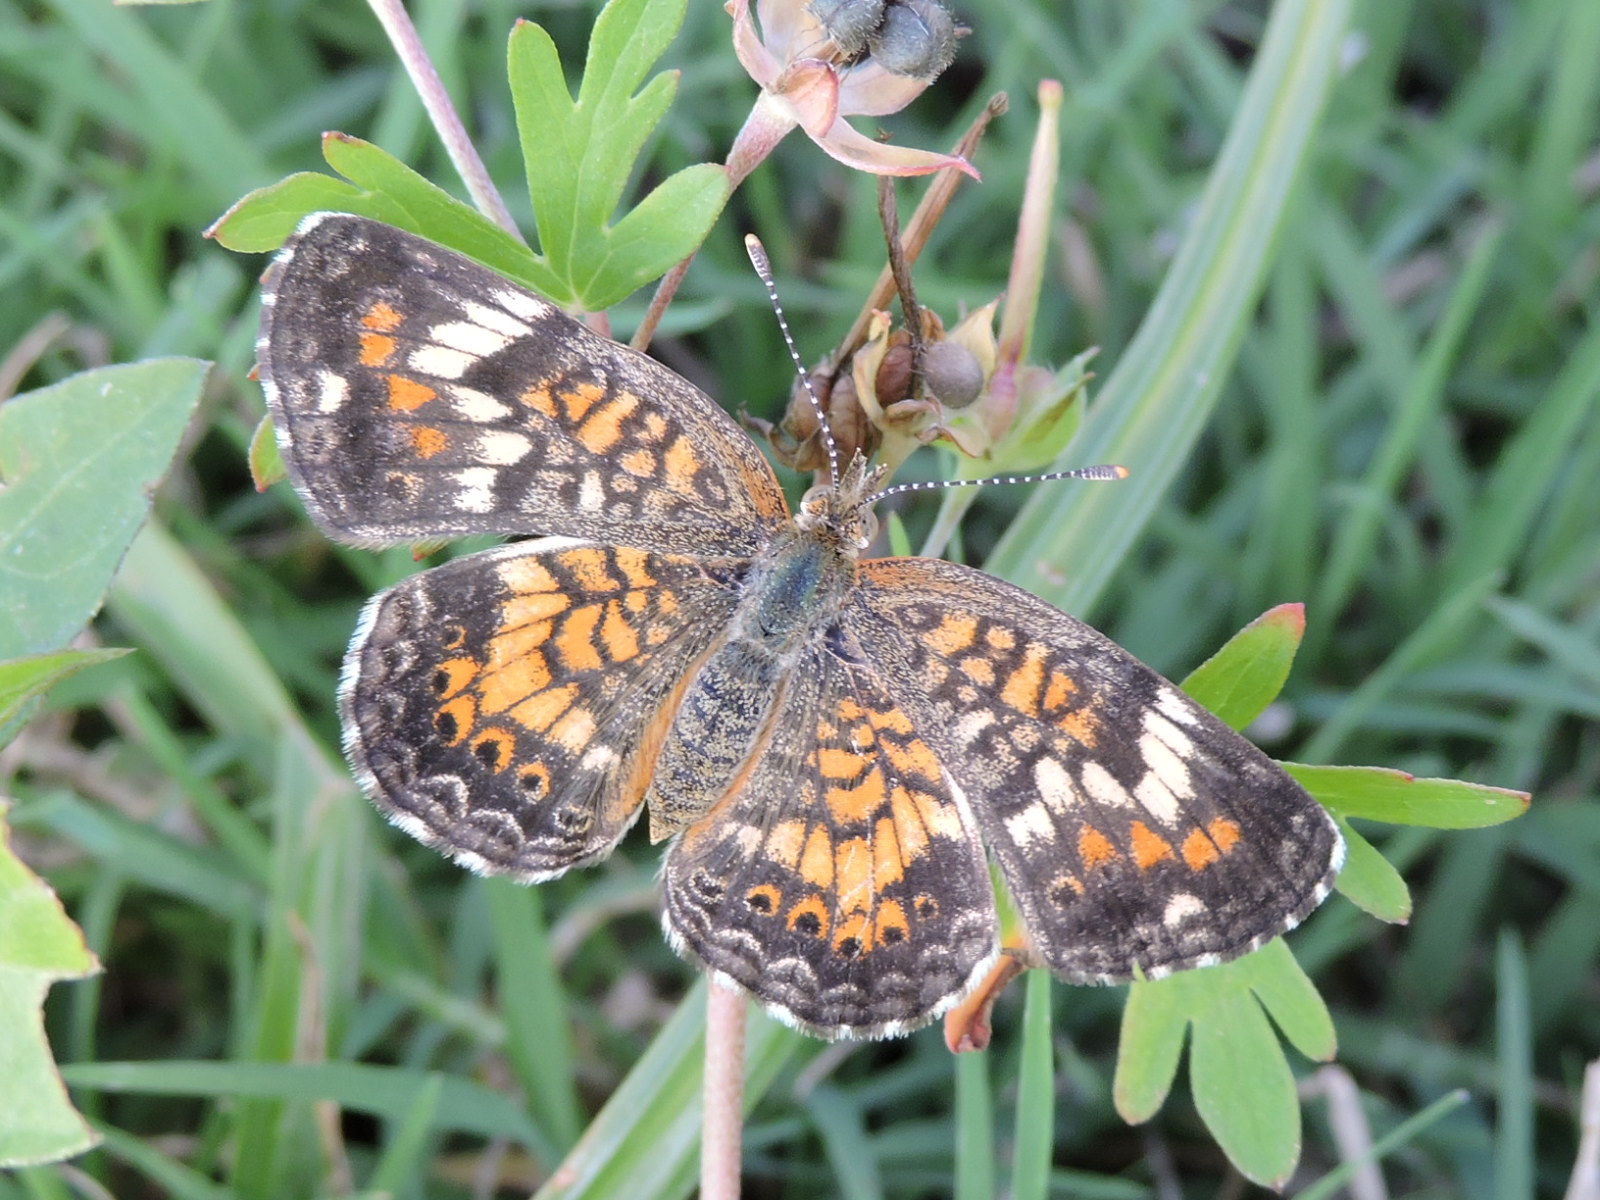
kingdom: Animalia
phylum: Arthropoda
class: Insecta
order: Lepidoptera
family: Nymphalidae
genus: Phyciodes
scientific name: Phyciodes phaon
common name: Phaon crescent
